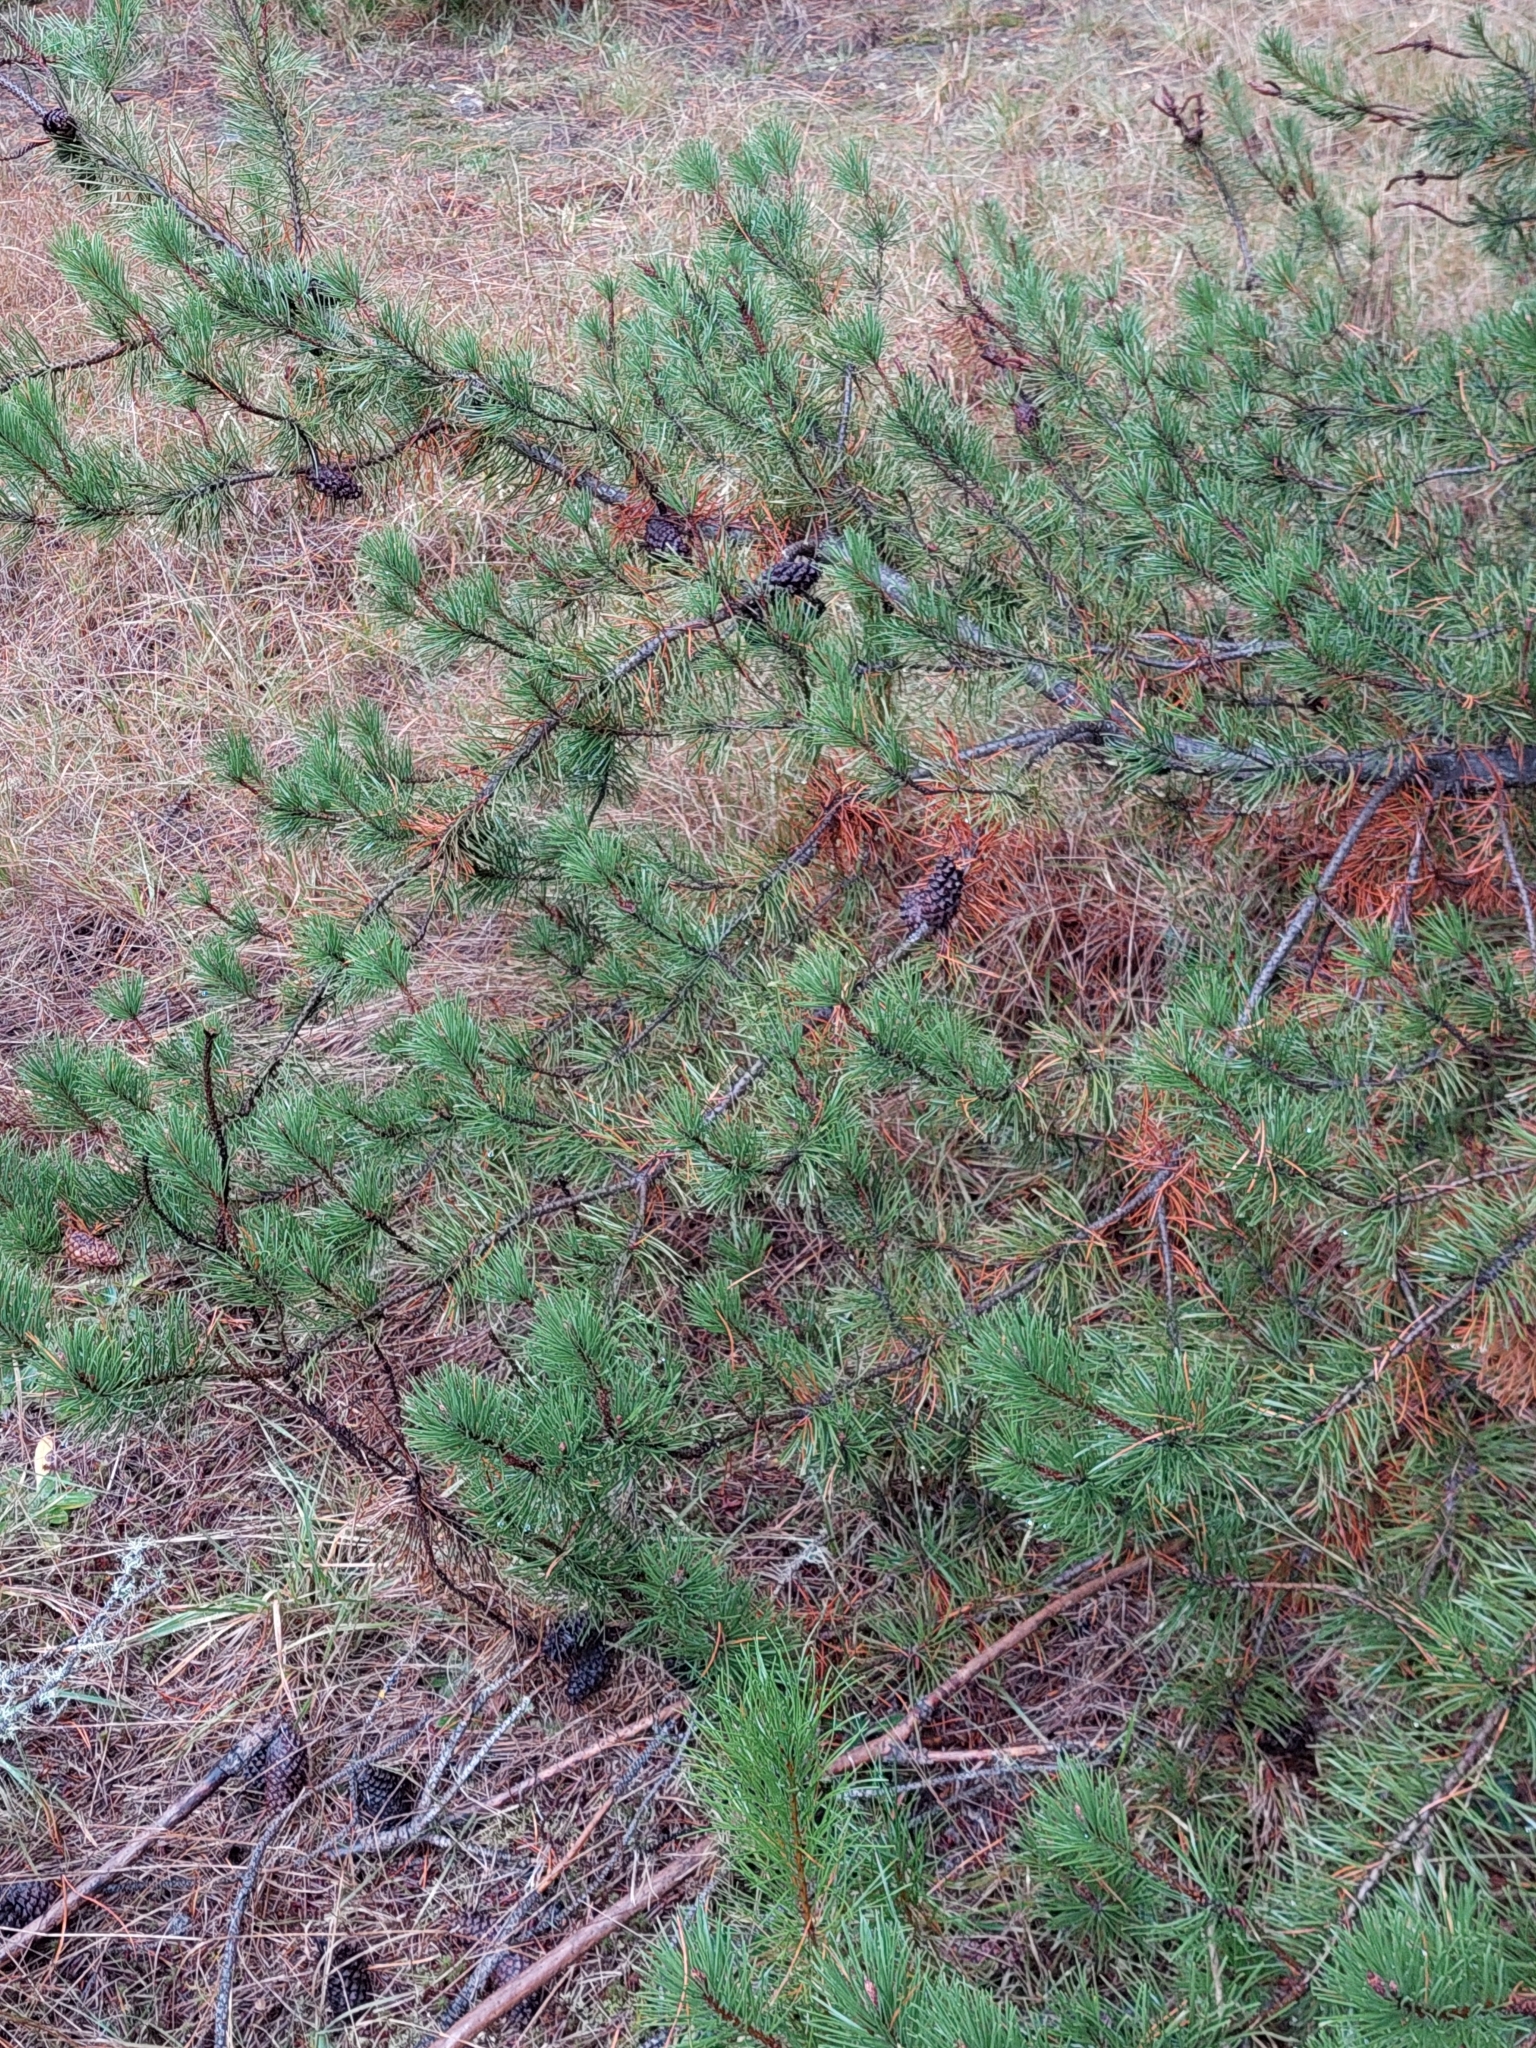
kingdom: Plantae
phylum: Tracheophyta
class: Pinopsida
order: Pinales
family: Pinaceae
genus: Pinus
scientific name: Pinus mugo
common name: Mugo pine
